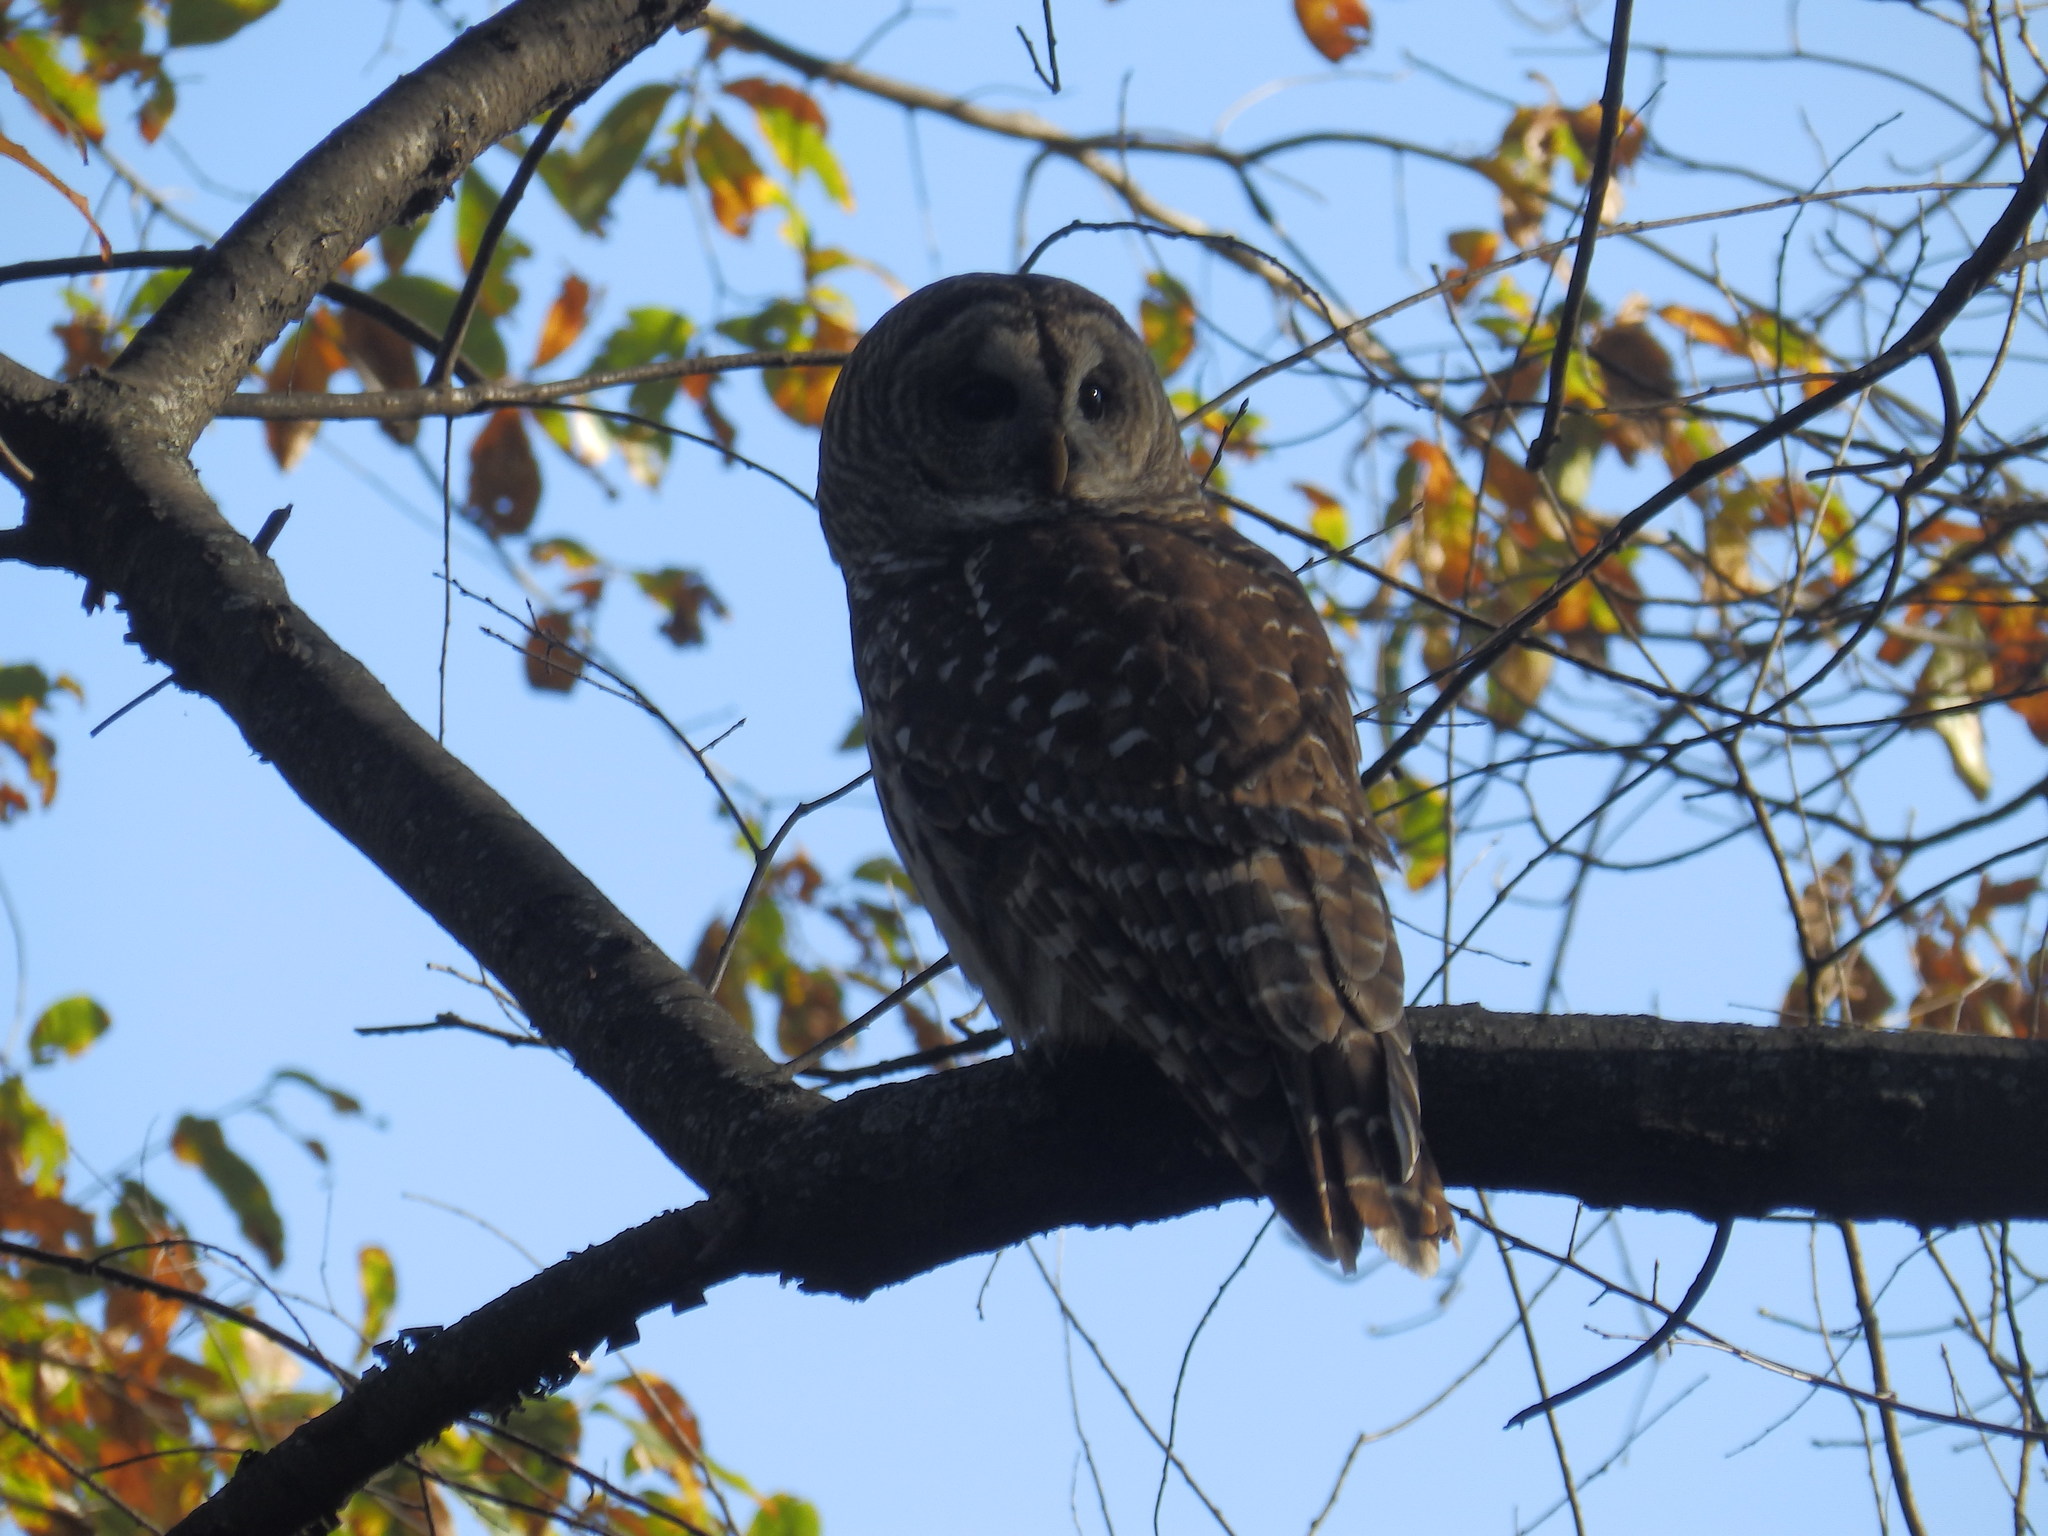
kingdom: Animalia
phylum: Chordata
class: Aves
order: Strigiformes
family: Strigidae
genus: Strix
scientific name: Strix varia
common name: Barred owl
